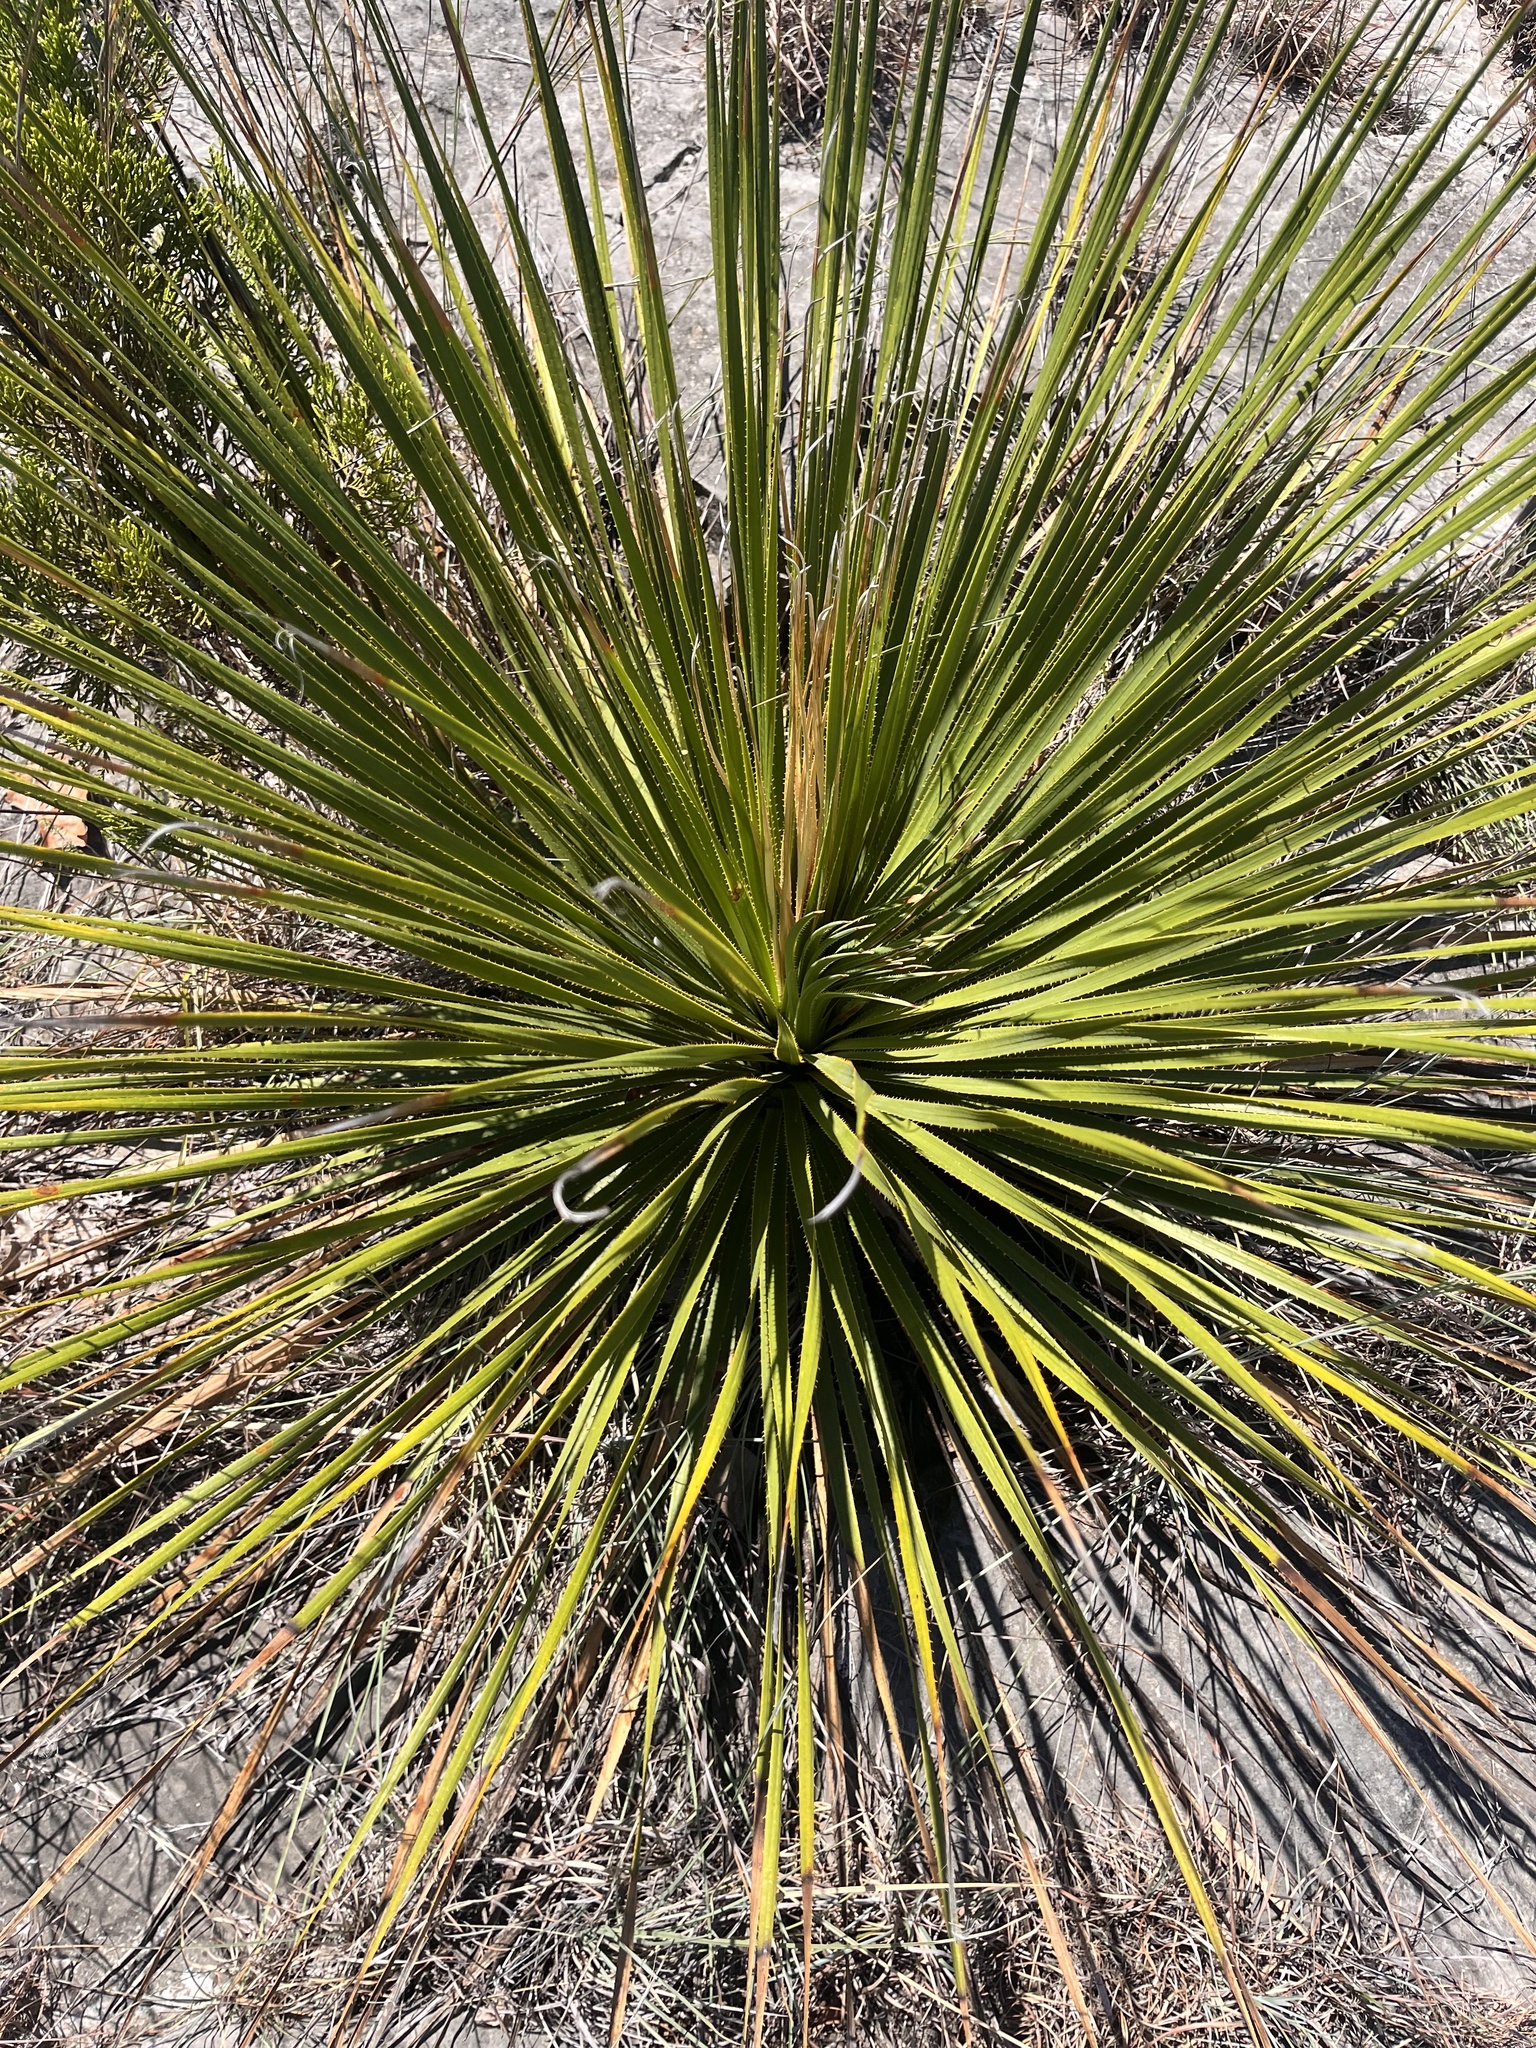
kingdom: Plantae
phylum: Tracheophyta
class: Liliopsida
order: Asparagales
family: Asparagaceae
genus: Dasylirion
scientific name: Dasylirion texanum
